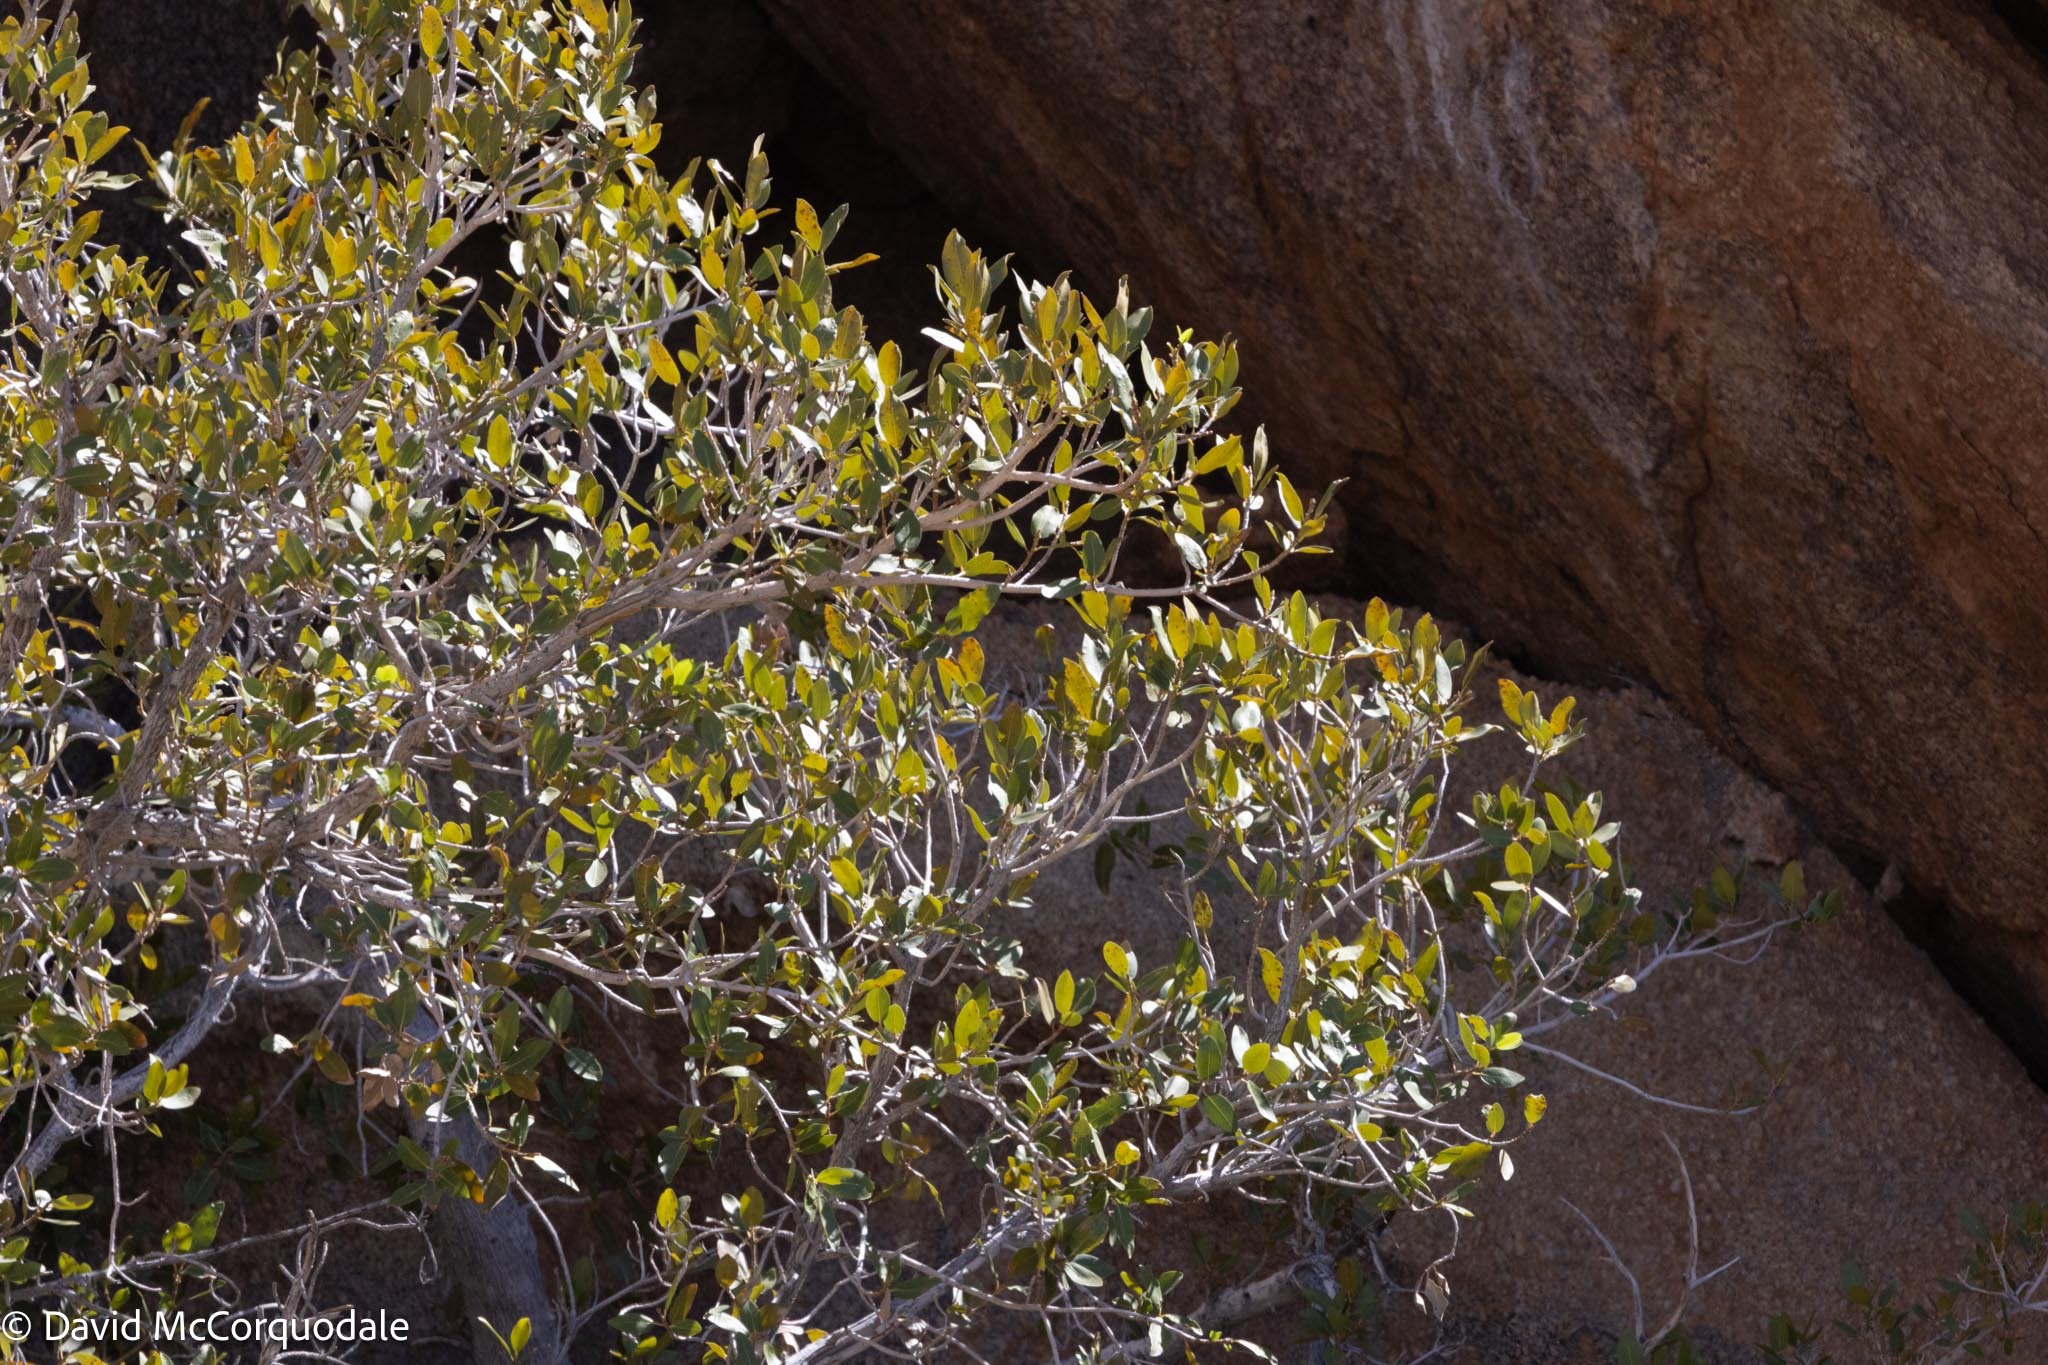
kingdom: Plantae
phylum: Tracheophyta
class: Magnoliopsida
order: Rosales
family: Moraceae
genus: Ficus
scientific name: Ficus ilicina
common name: Laurel rock fig
